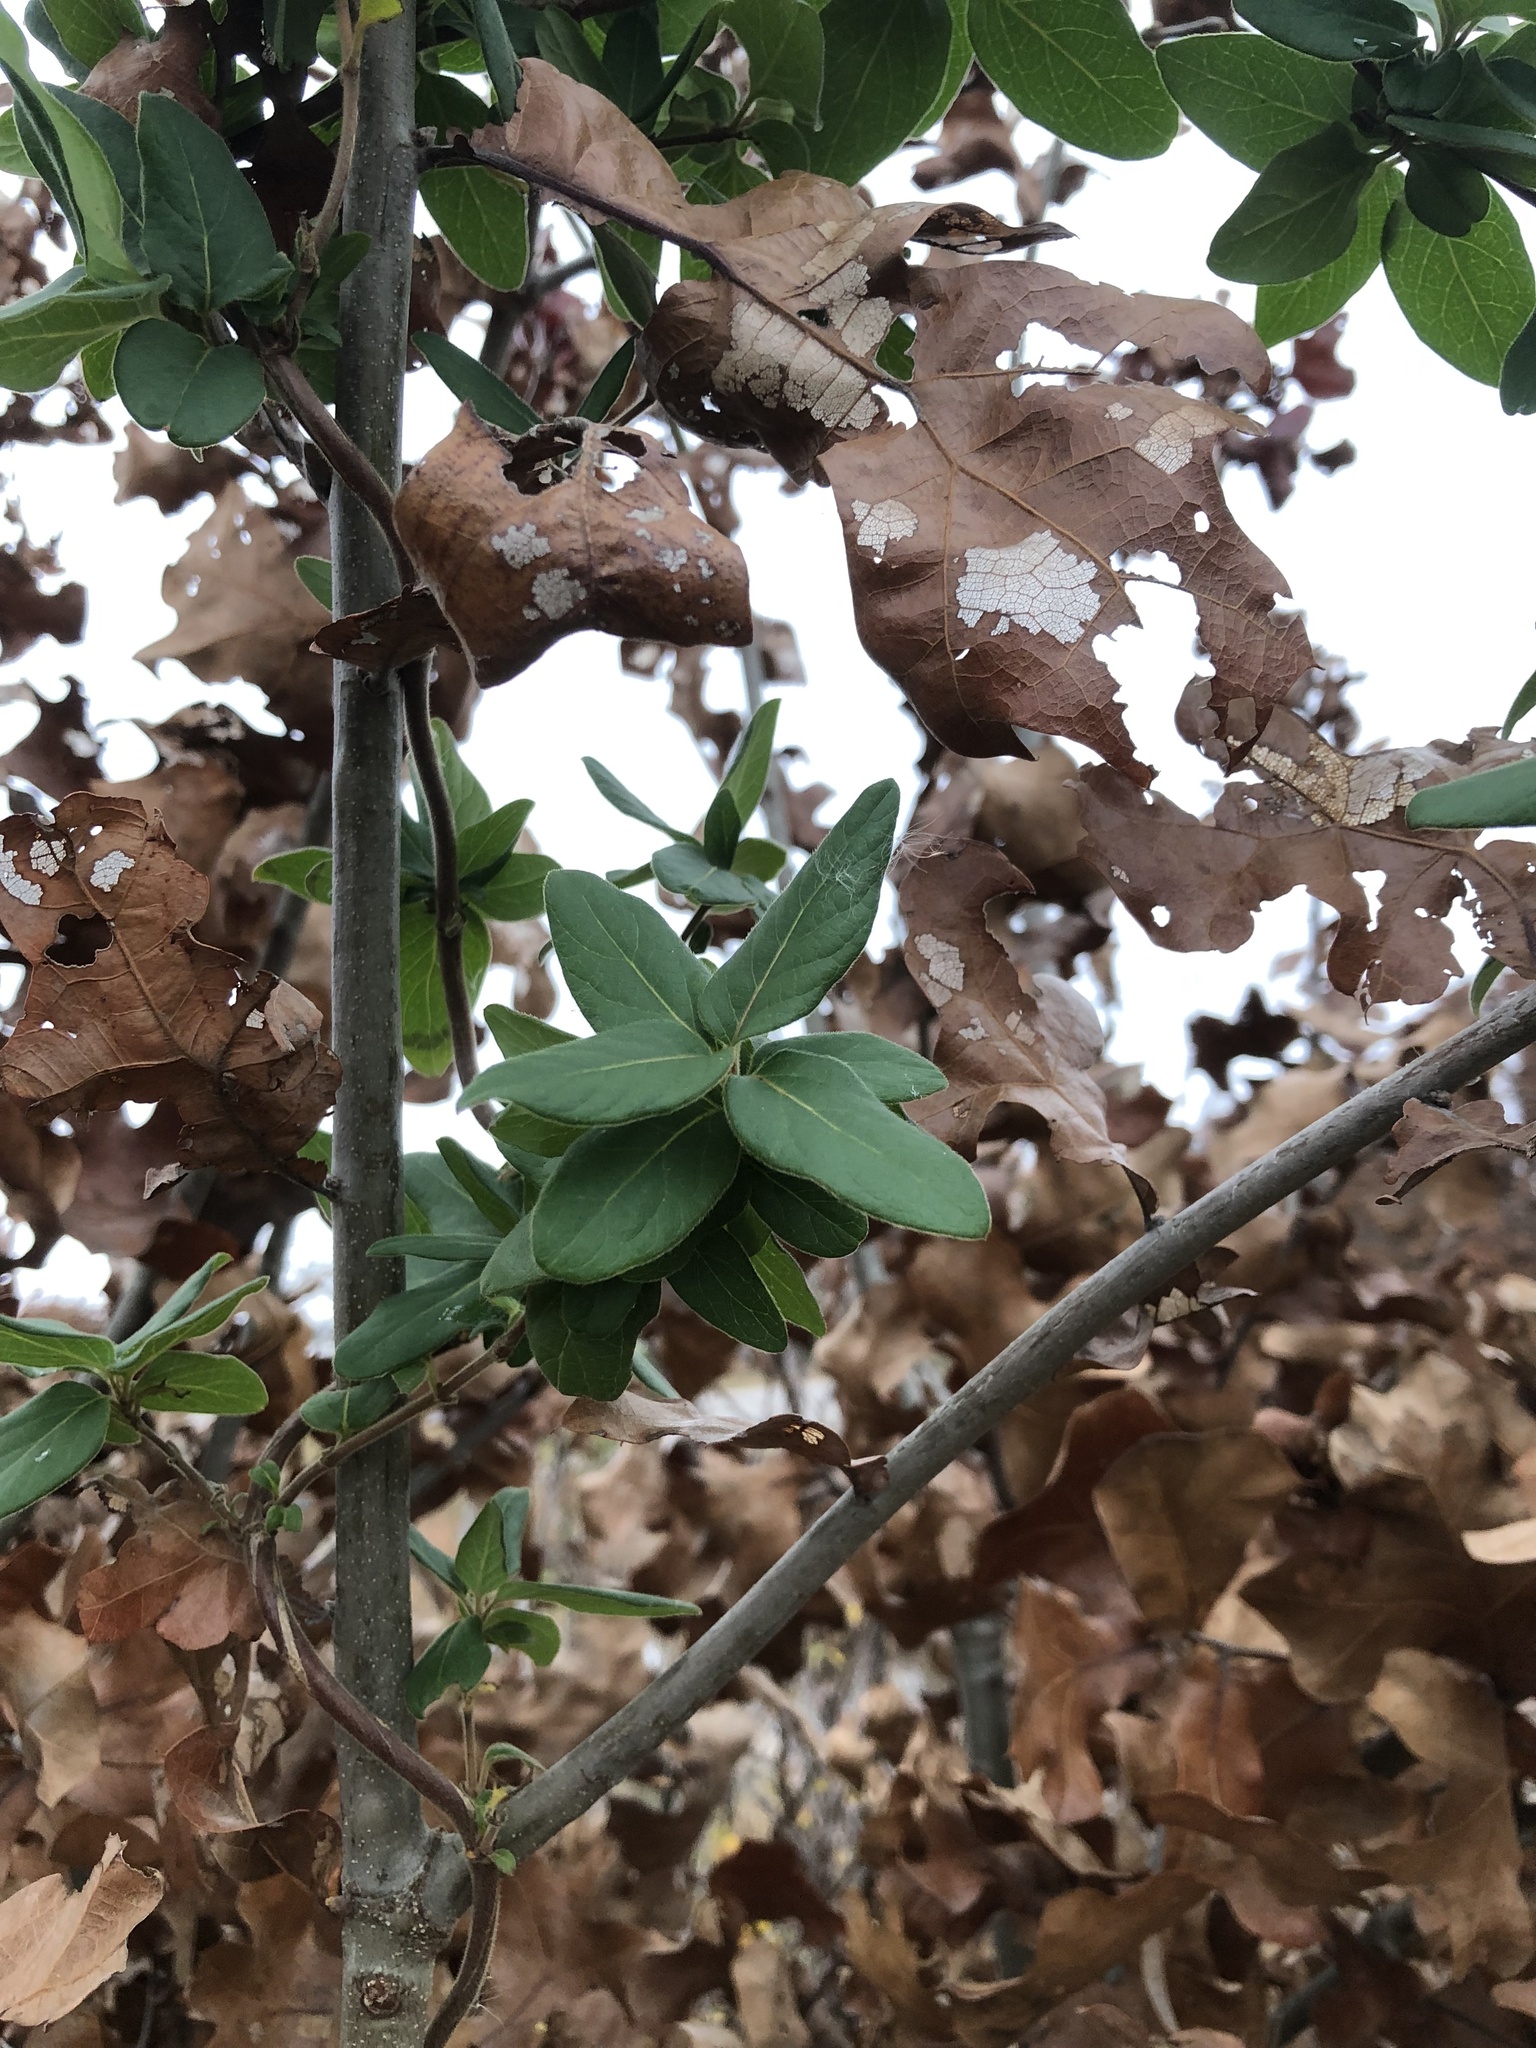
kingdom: Plantae
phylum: Tracheophyta
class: Magnoliopsida
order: Dipsacales
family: Caprifoliaceae
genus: Lonicera
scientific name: Lonicera japonica
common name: Japanese honeysuckle
